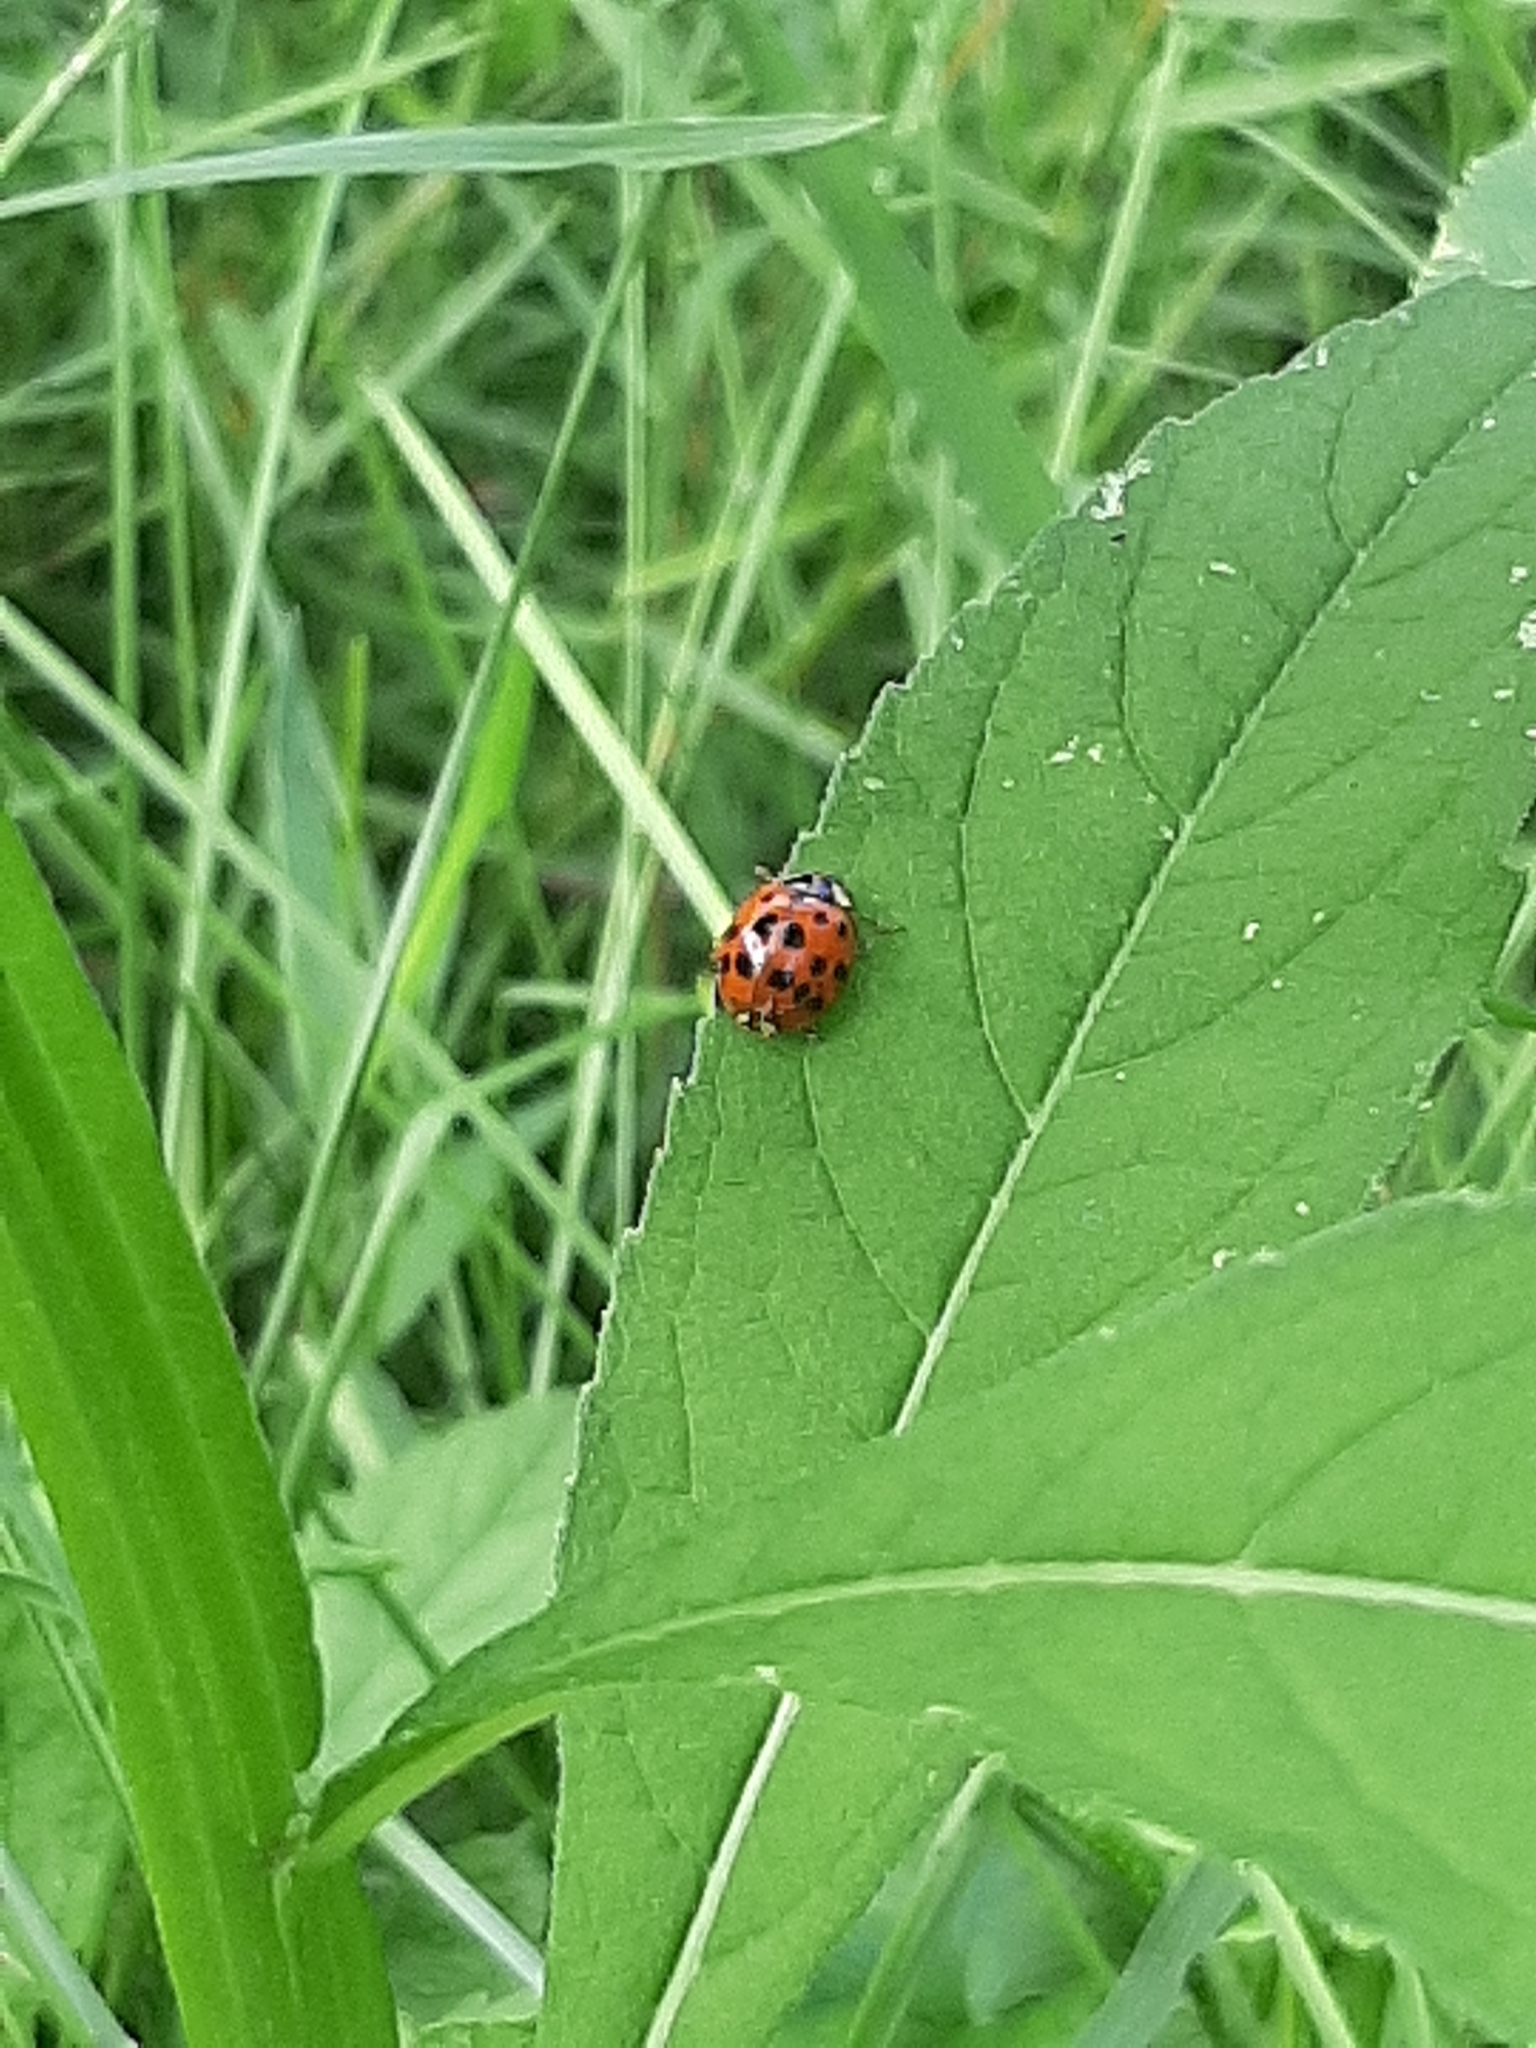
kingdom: Animalia
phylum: Arthropoda
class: Insecta
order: Coleoptera
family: Coccinellidae
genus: Harmonia
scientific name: Harmonia axyridis
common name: Harlequin ladybird
